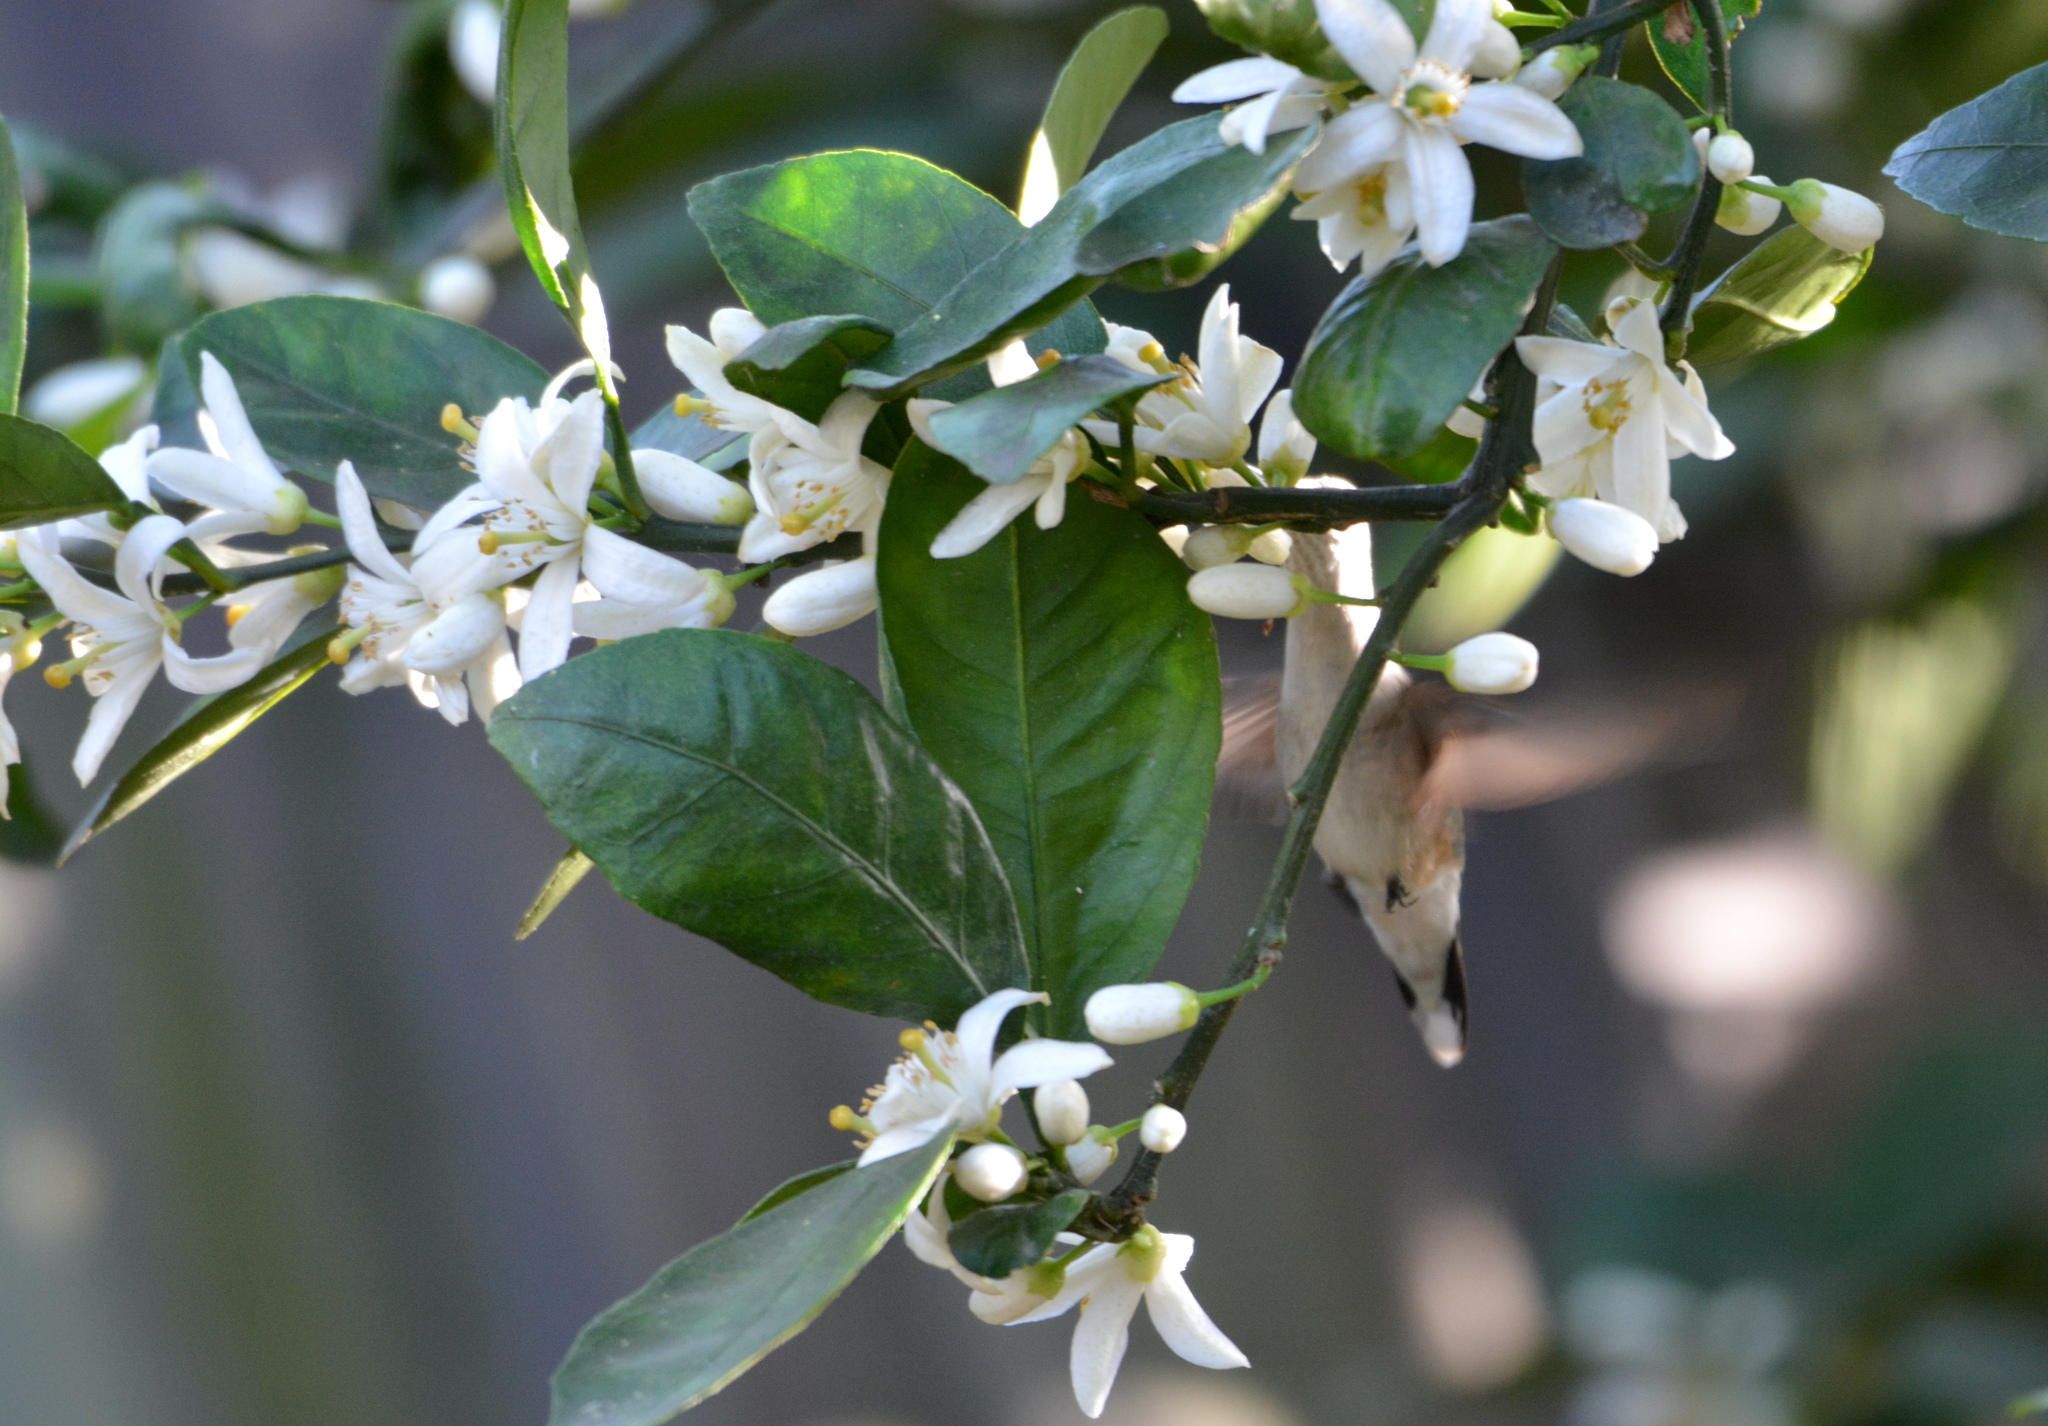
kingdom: Animalia
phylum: Chordata
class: Aves
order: Apodiformes
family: Trochilidae
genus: Archilochus
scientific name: Archilochus colubris
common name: Ruby-throated hummingbird
